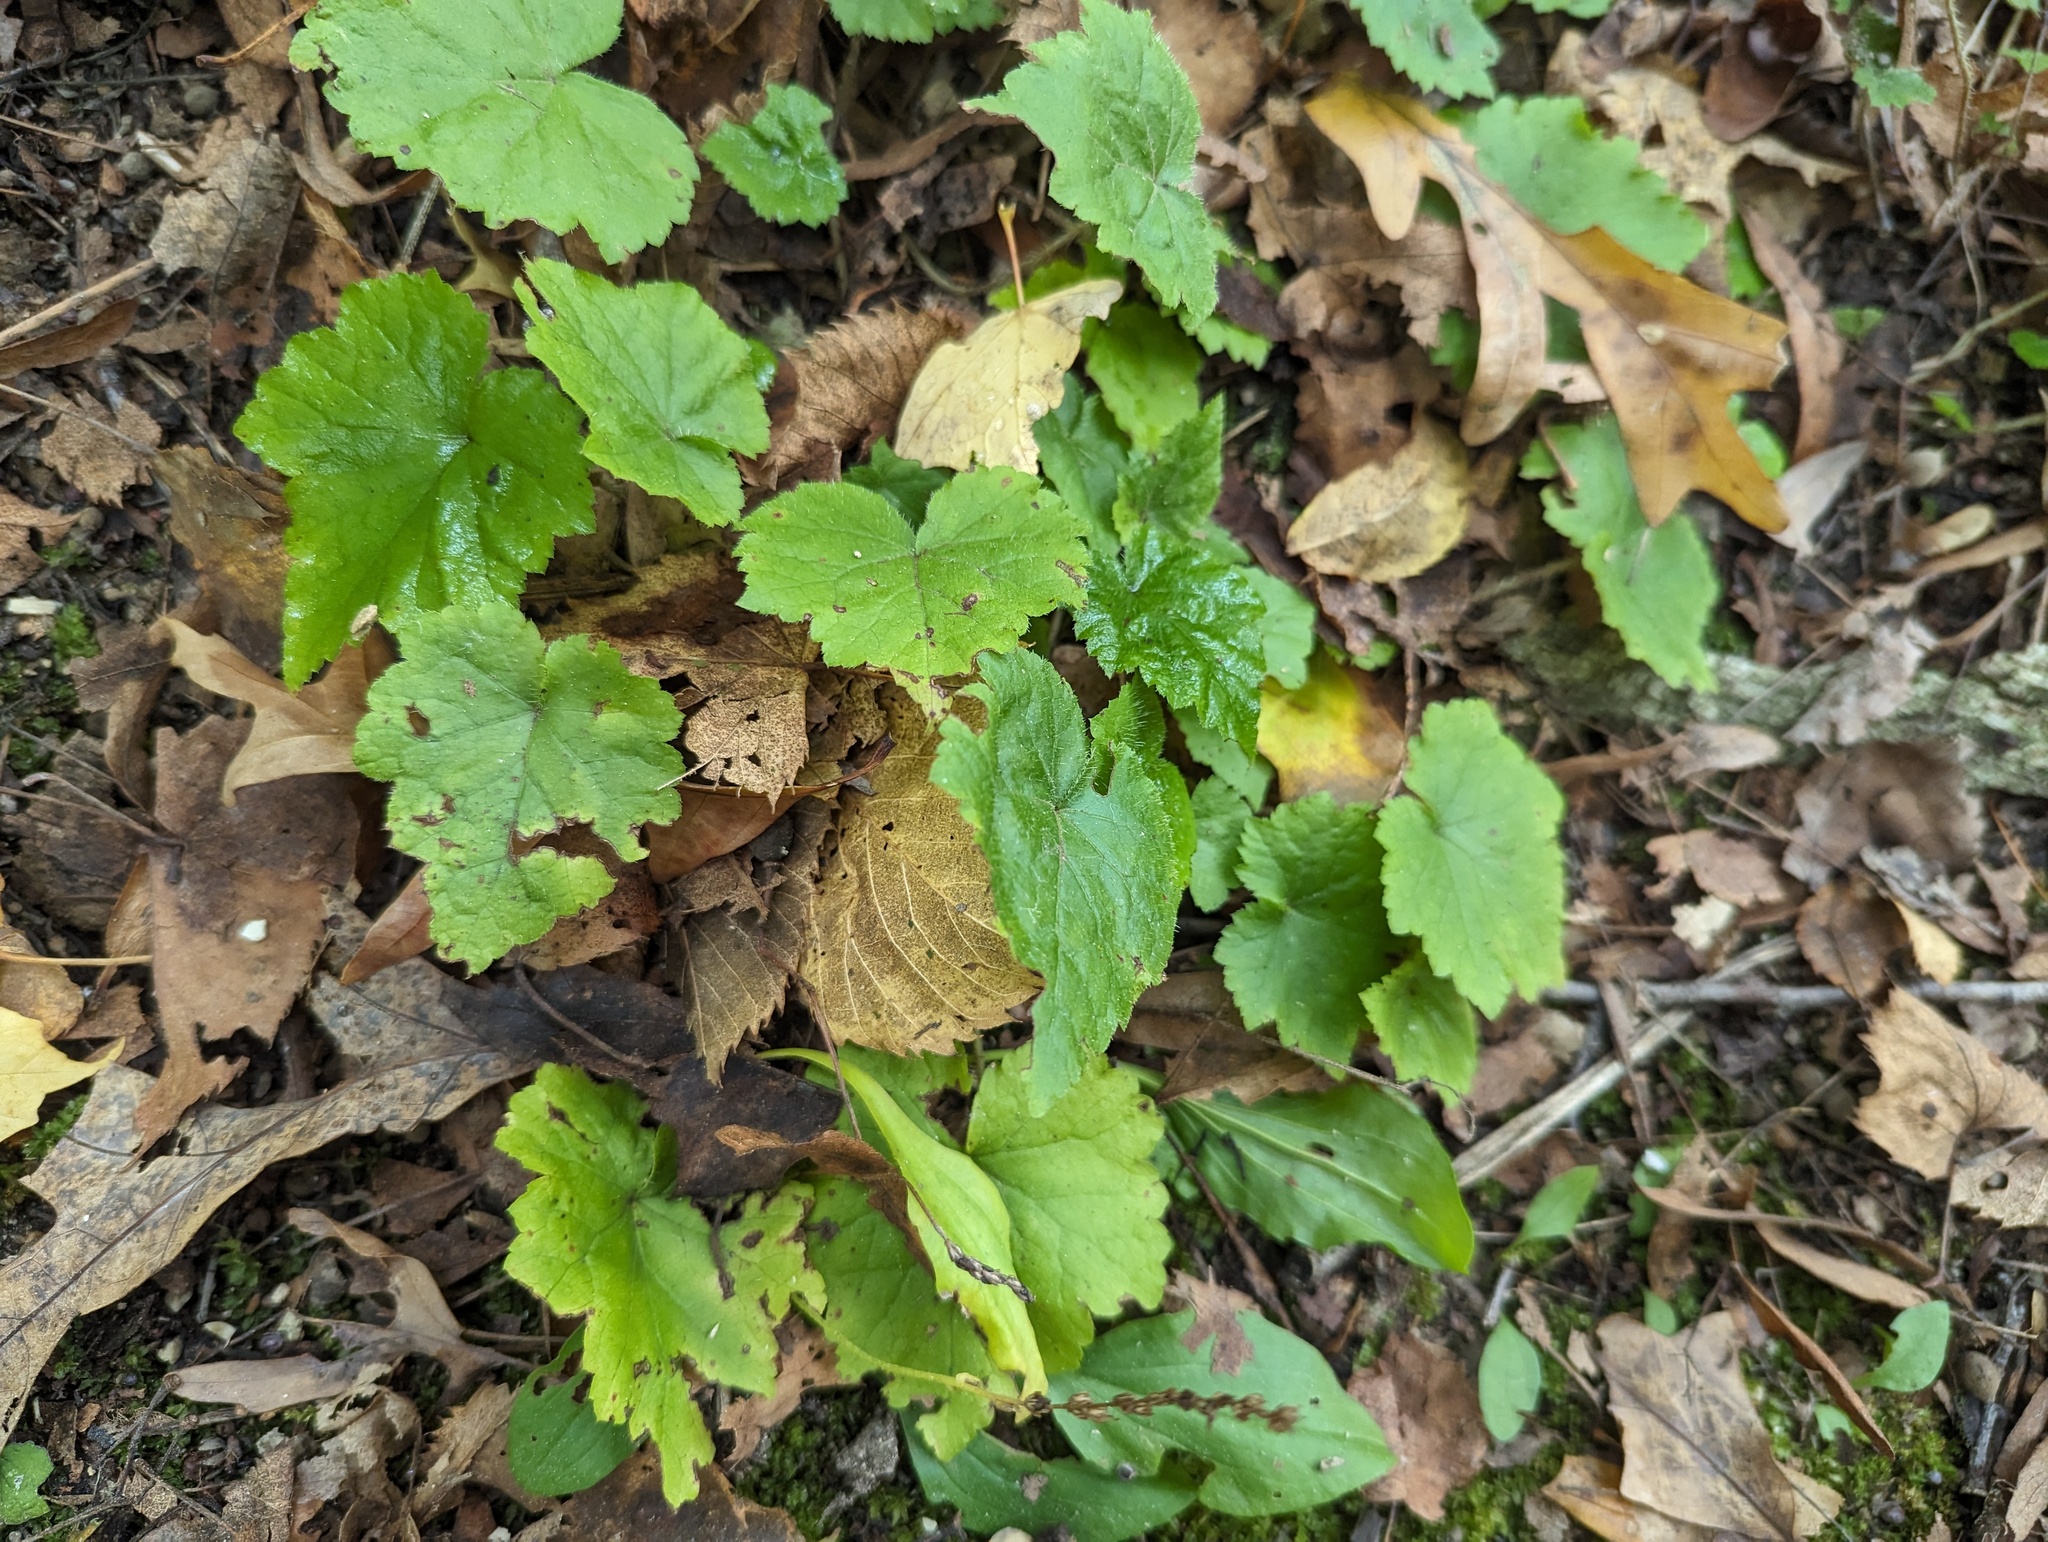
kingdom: Plantae
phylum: Tracheophyta
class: Magnoliopsida
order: Saxifragales
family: Saxifragaceae
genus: Mitella
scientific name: Mitella diphylla
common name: Coolwort
